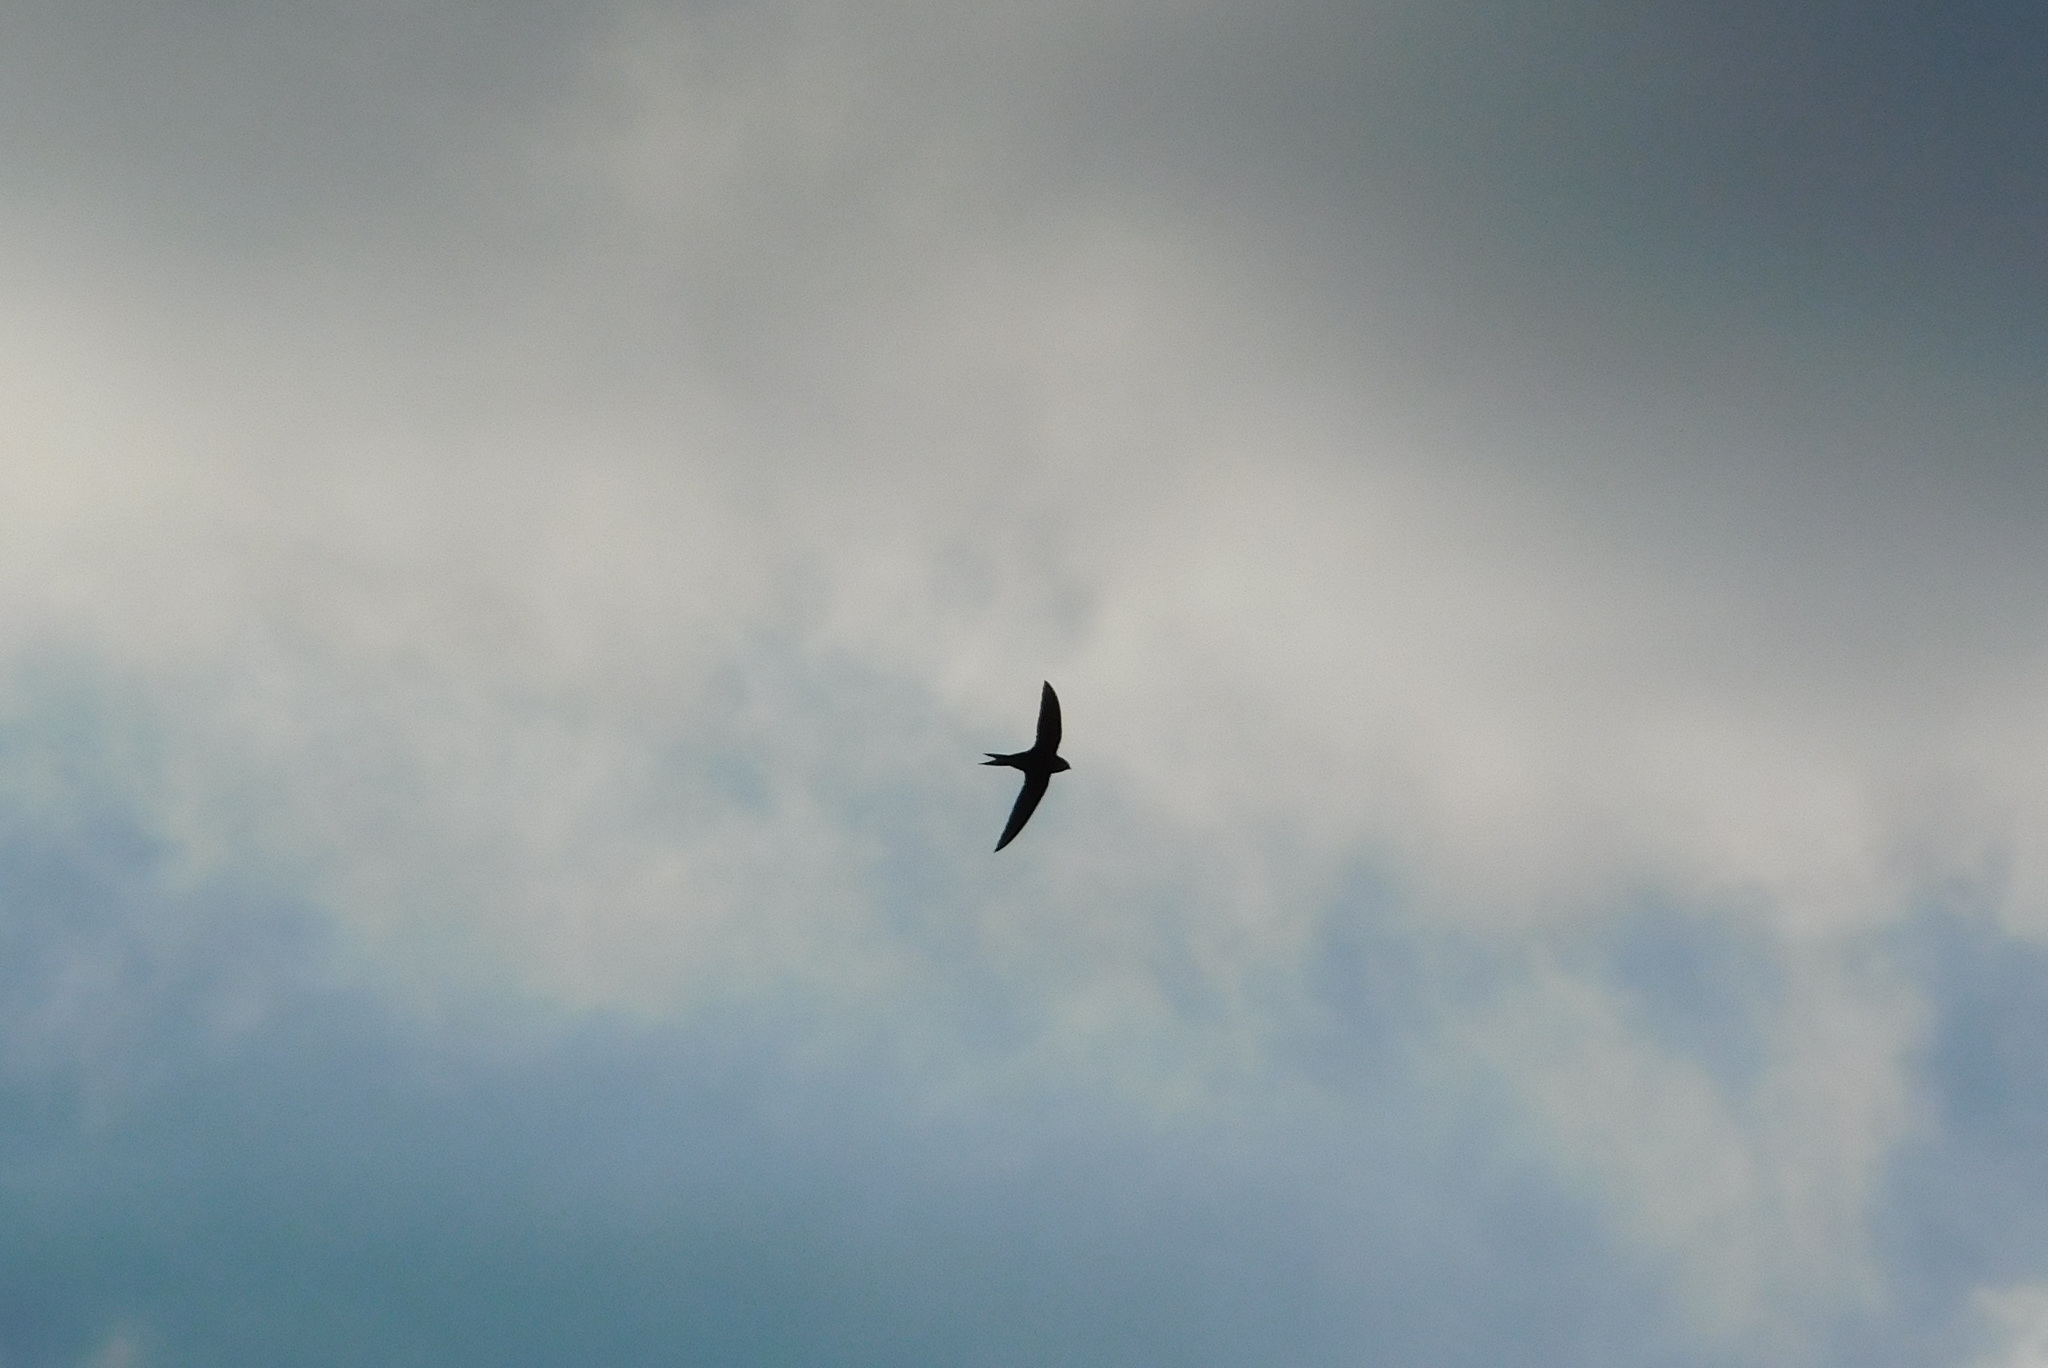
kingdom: Animalia
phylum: Chordata
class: Aves
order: Apodiformes
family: Apodidae
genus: Apus
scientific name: Apus apus
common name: Common swift
